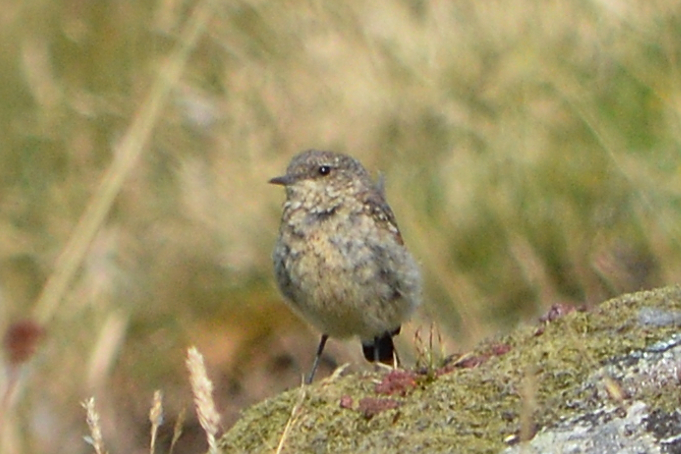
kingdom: Animalia
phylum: Chordata
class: Aves
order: Passeriformes
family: Muscicapidae
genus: Oenanthe
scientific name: Oenanthe oenanthe
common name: Northern wheatear
